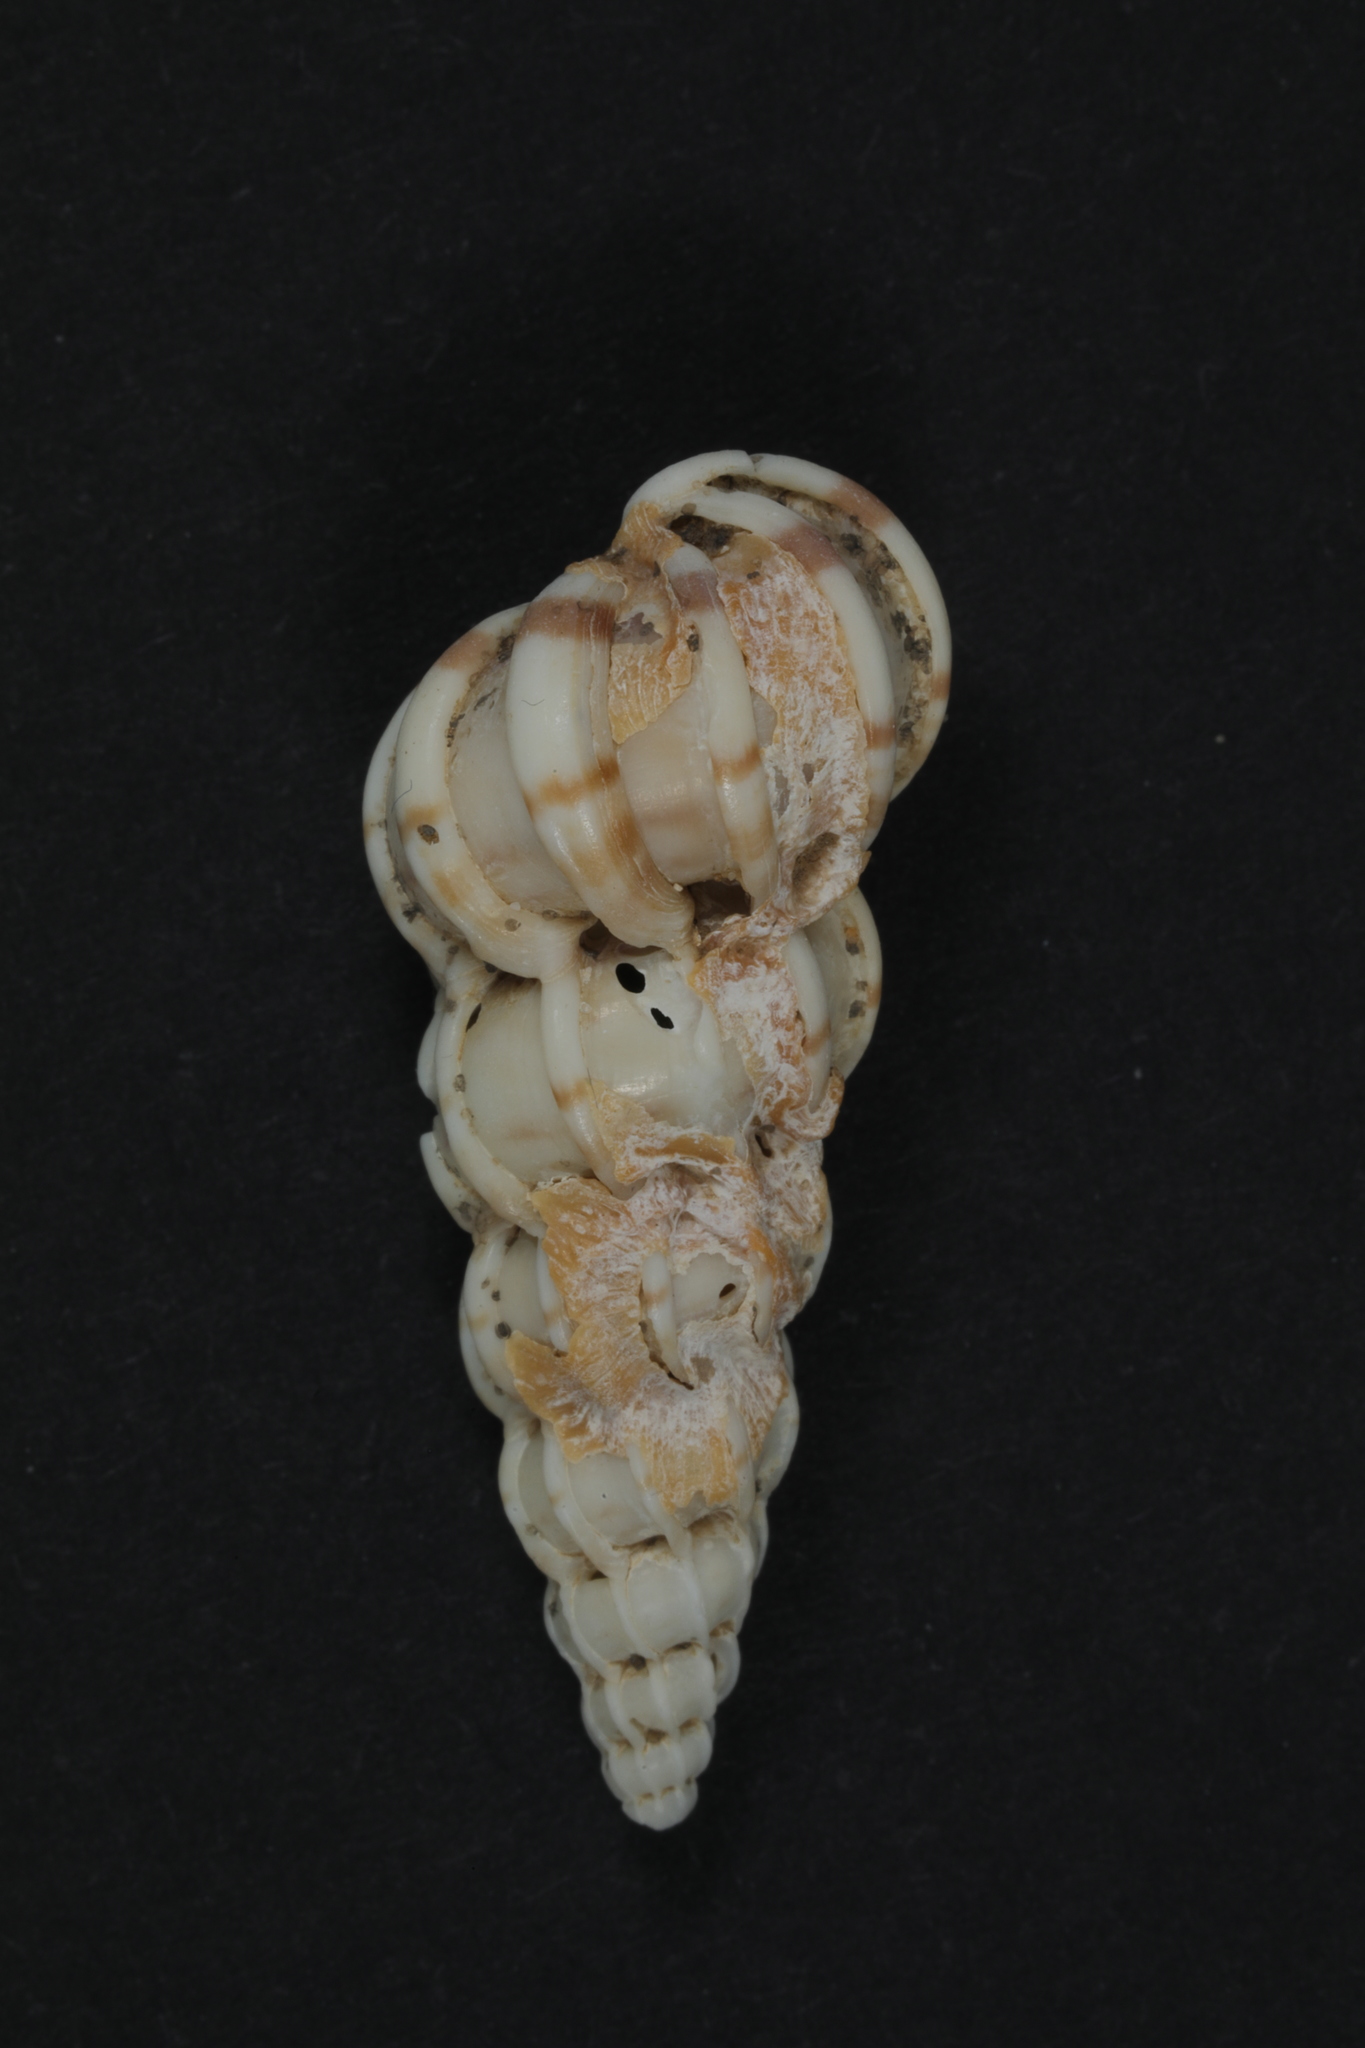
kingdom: Animalia
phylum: Mollusca
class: Gastropoda
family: Epitoniidae
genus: Epitonium
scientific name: Epitonium clathrus
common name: Common wentletrap
